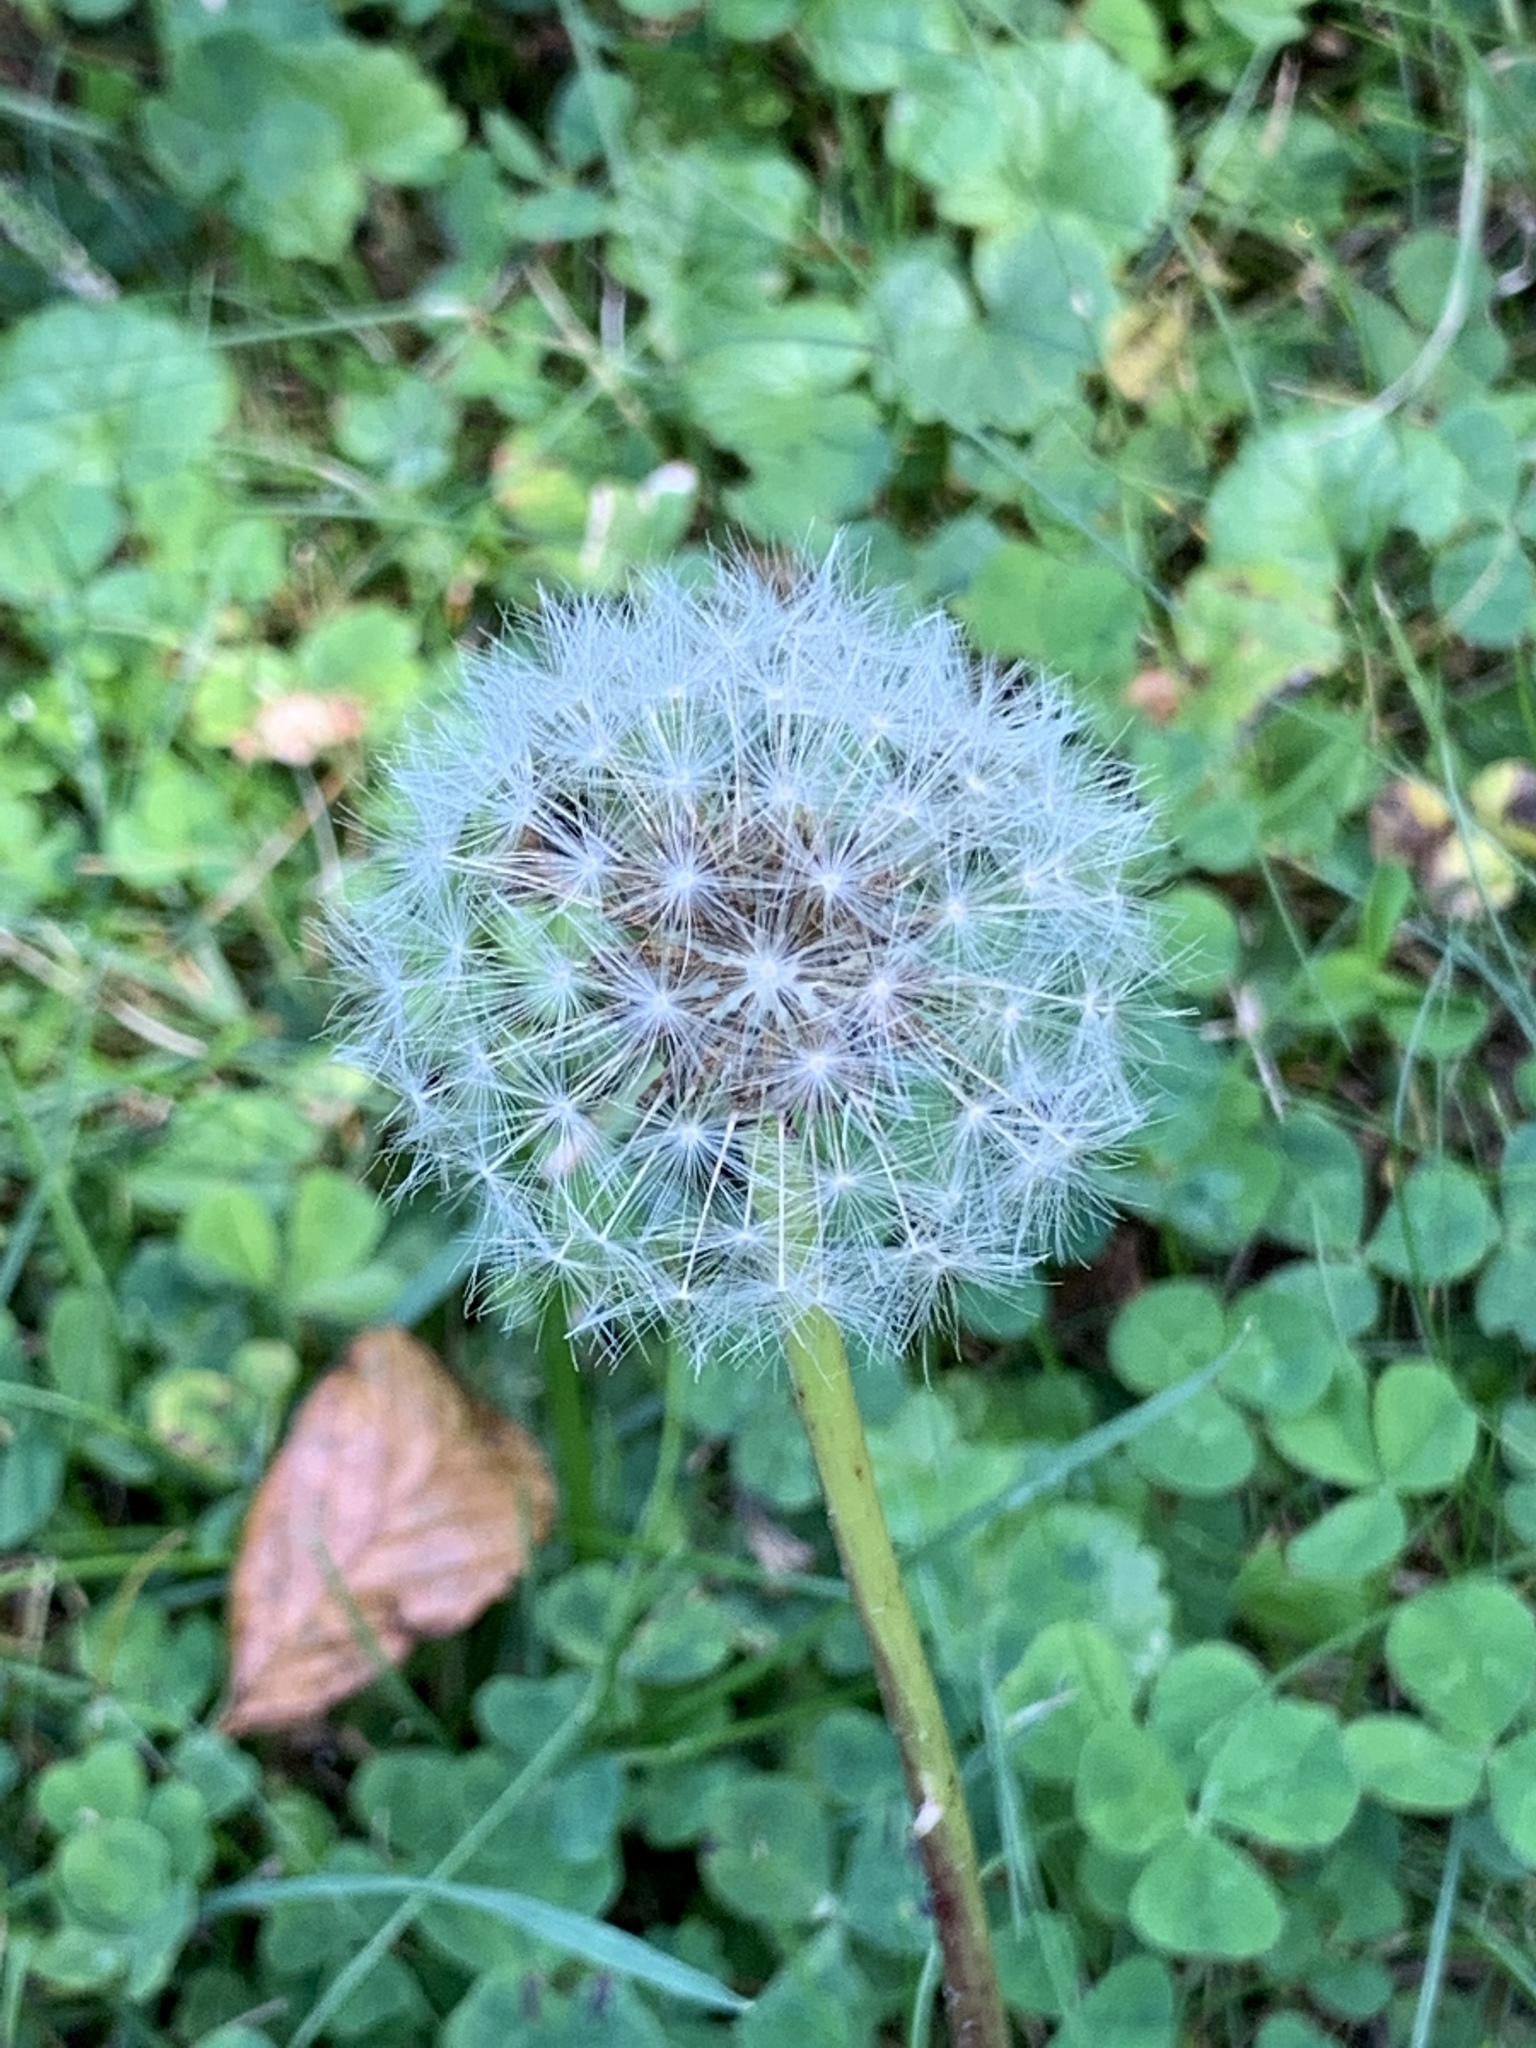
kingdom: Plantae
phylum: Tracheophyta
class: Magnoliopsida
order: Asterales
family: Asteraceae
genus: Taraxacum
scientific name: Taraxacum officinale
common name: Common dandelion
